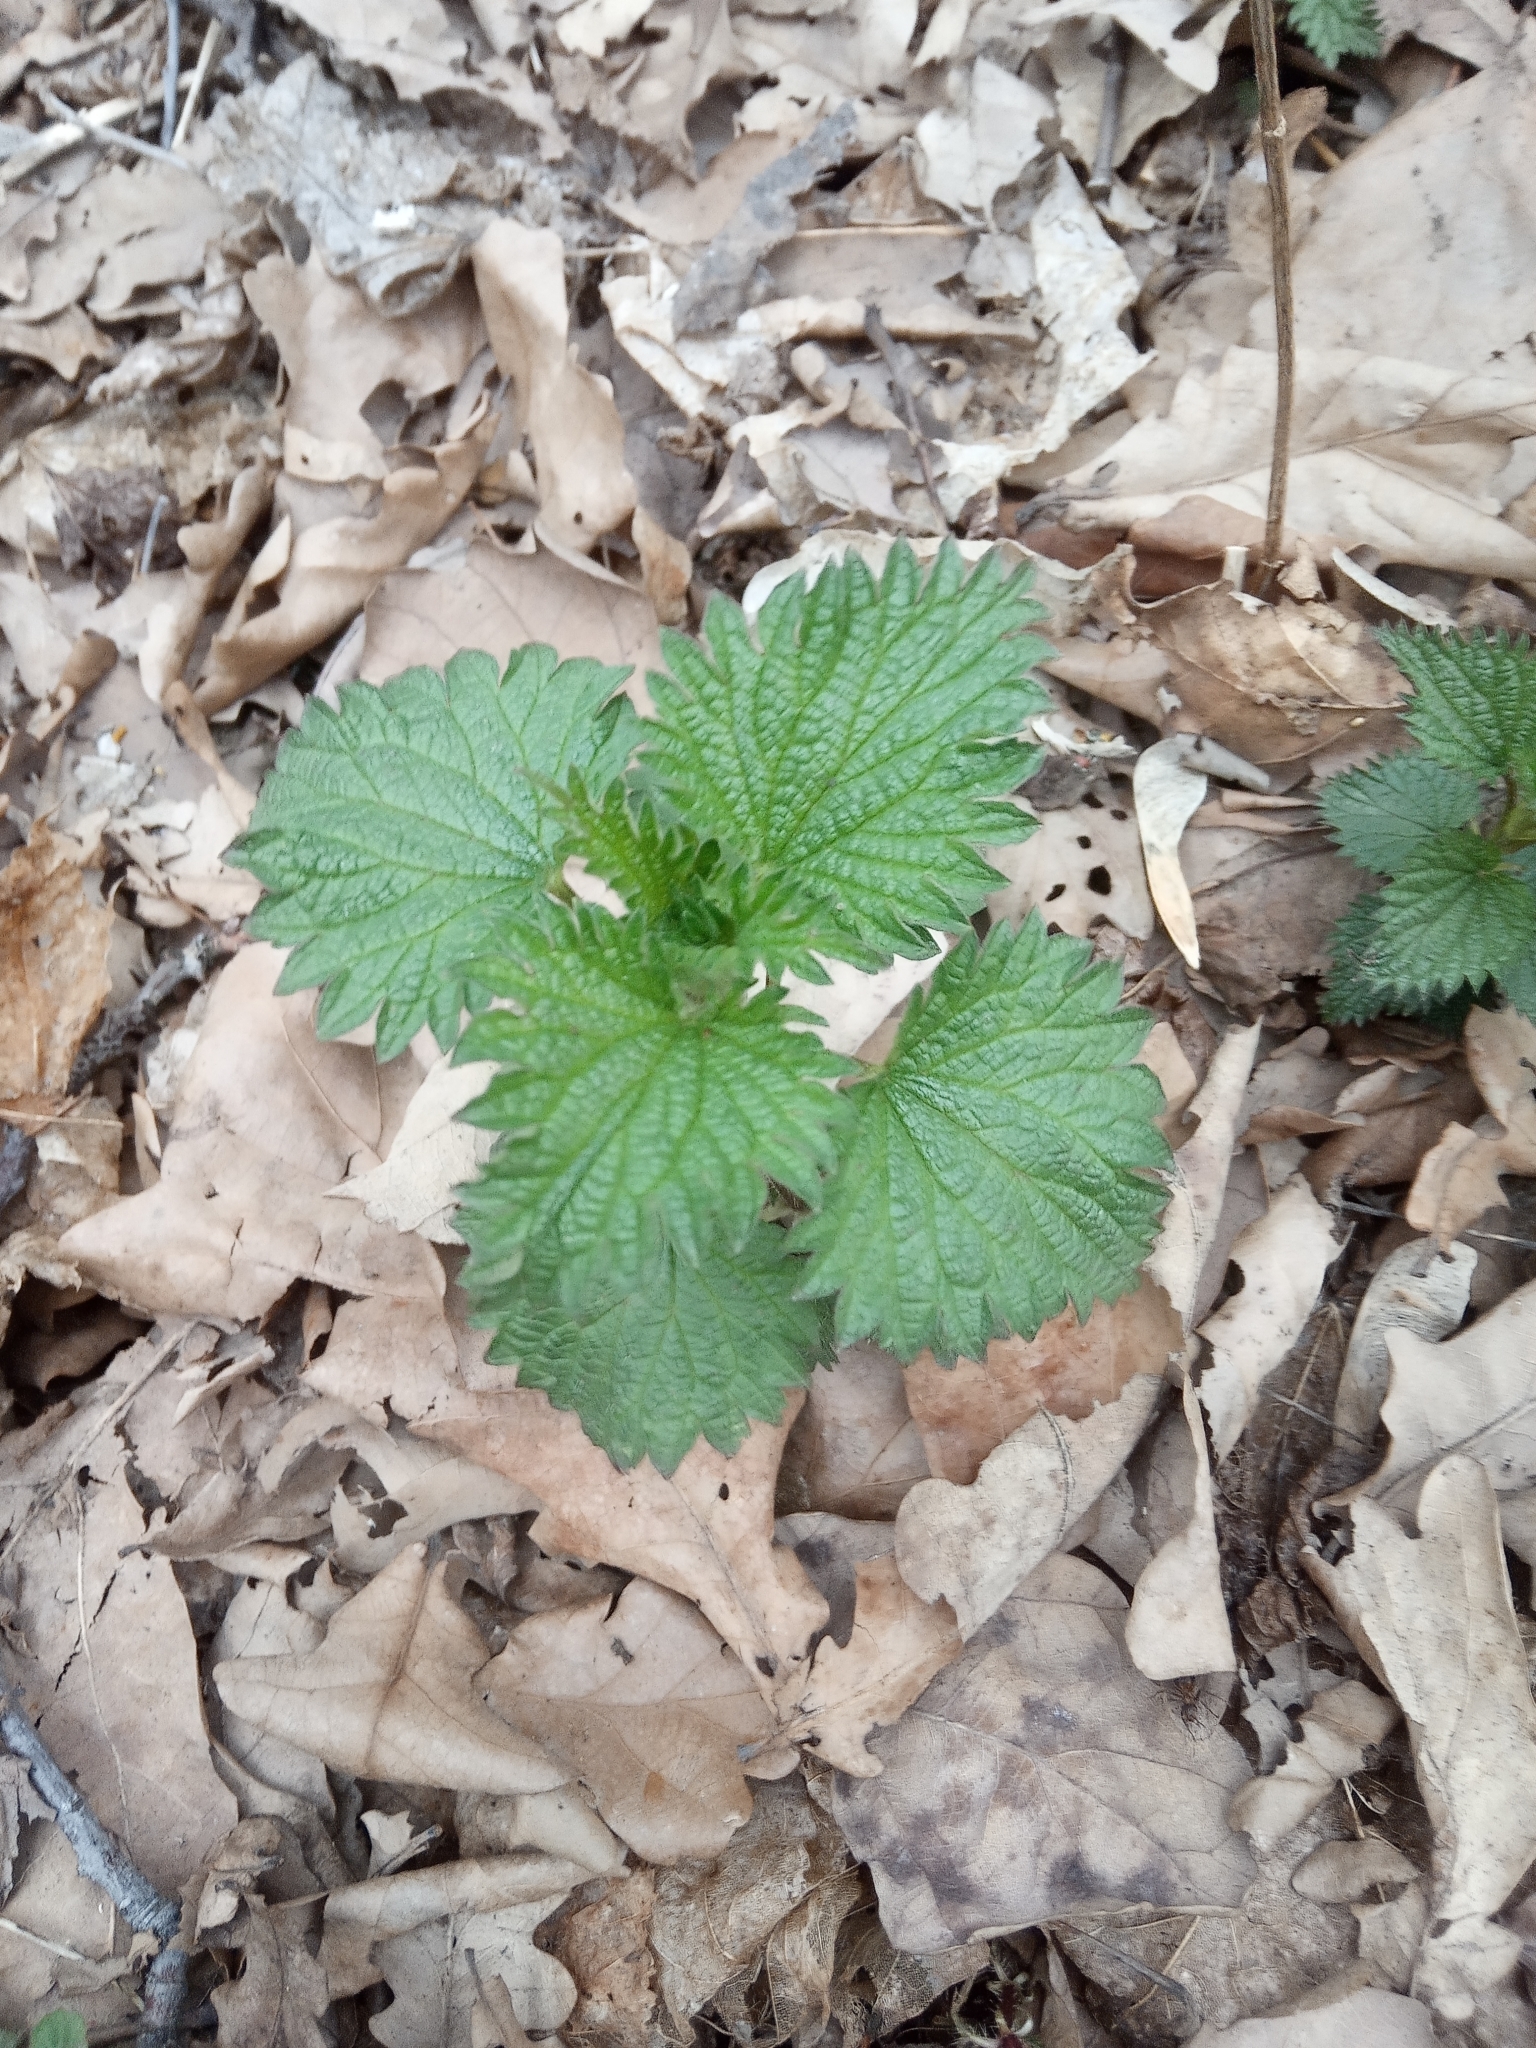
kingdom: Plantae
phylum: Tracheophyta
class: Magnoliopsida
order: Rosales
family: Urticaceae
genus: Urtica
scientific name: Urtica dioica
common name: Common nettle
